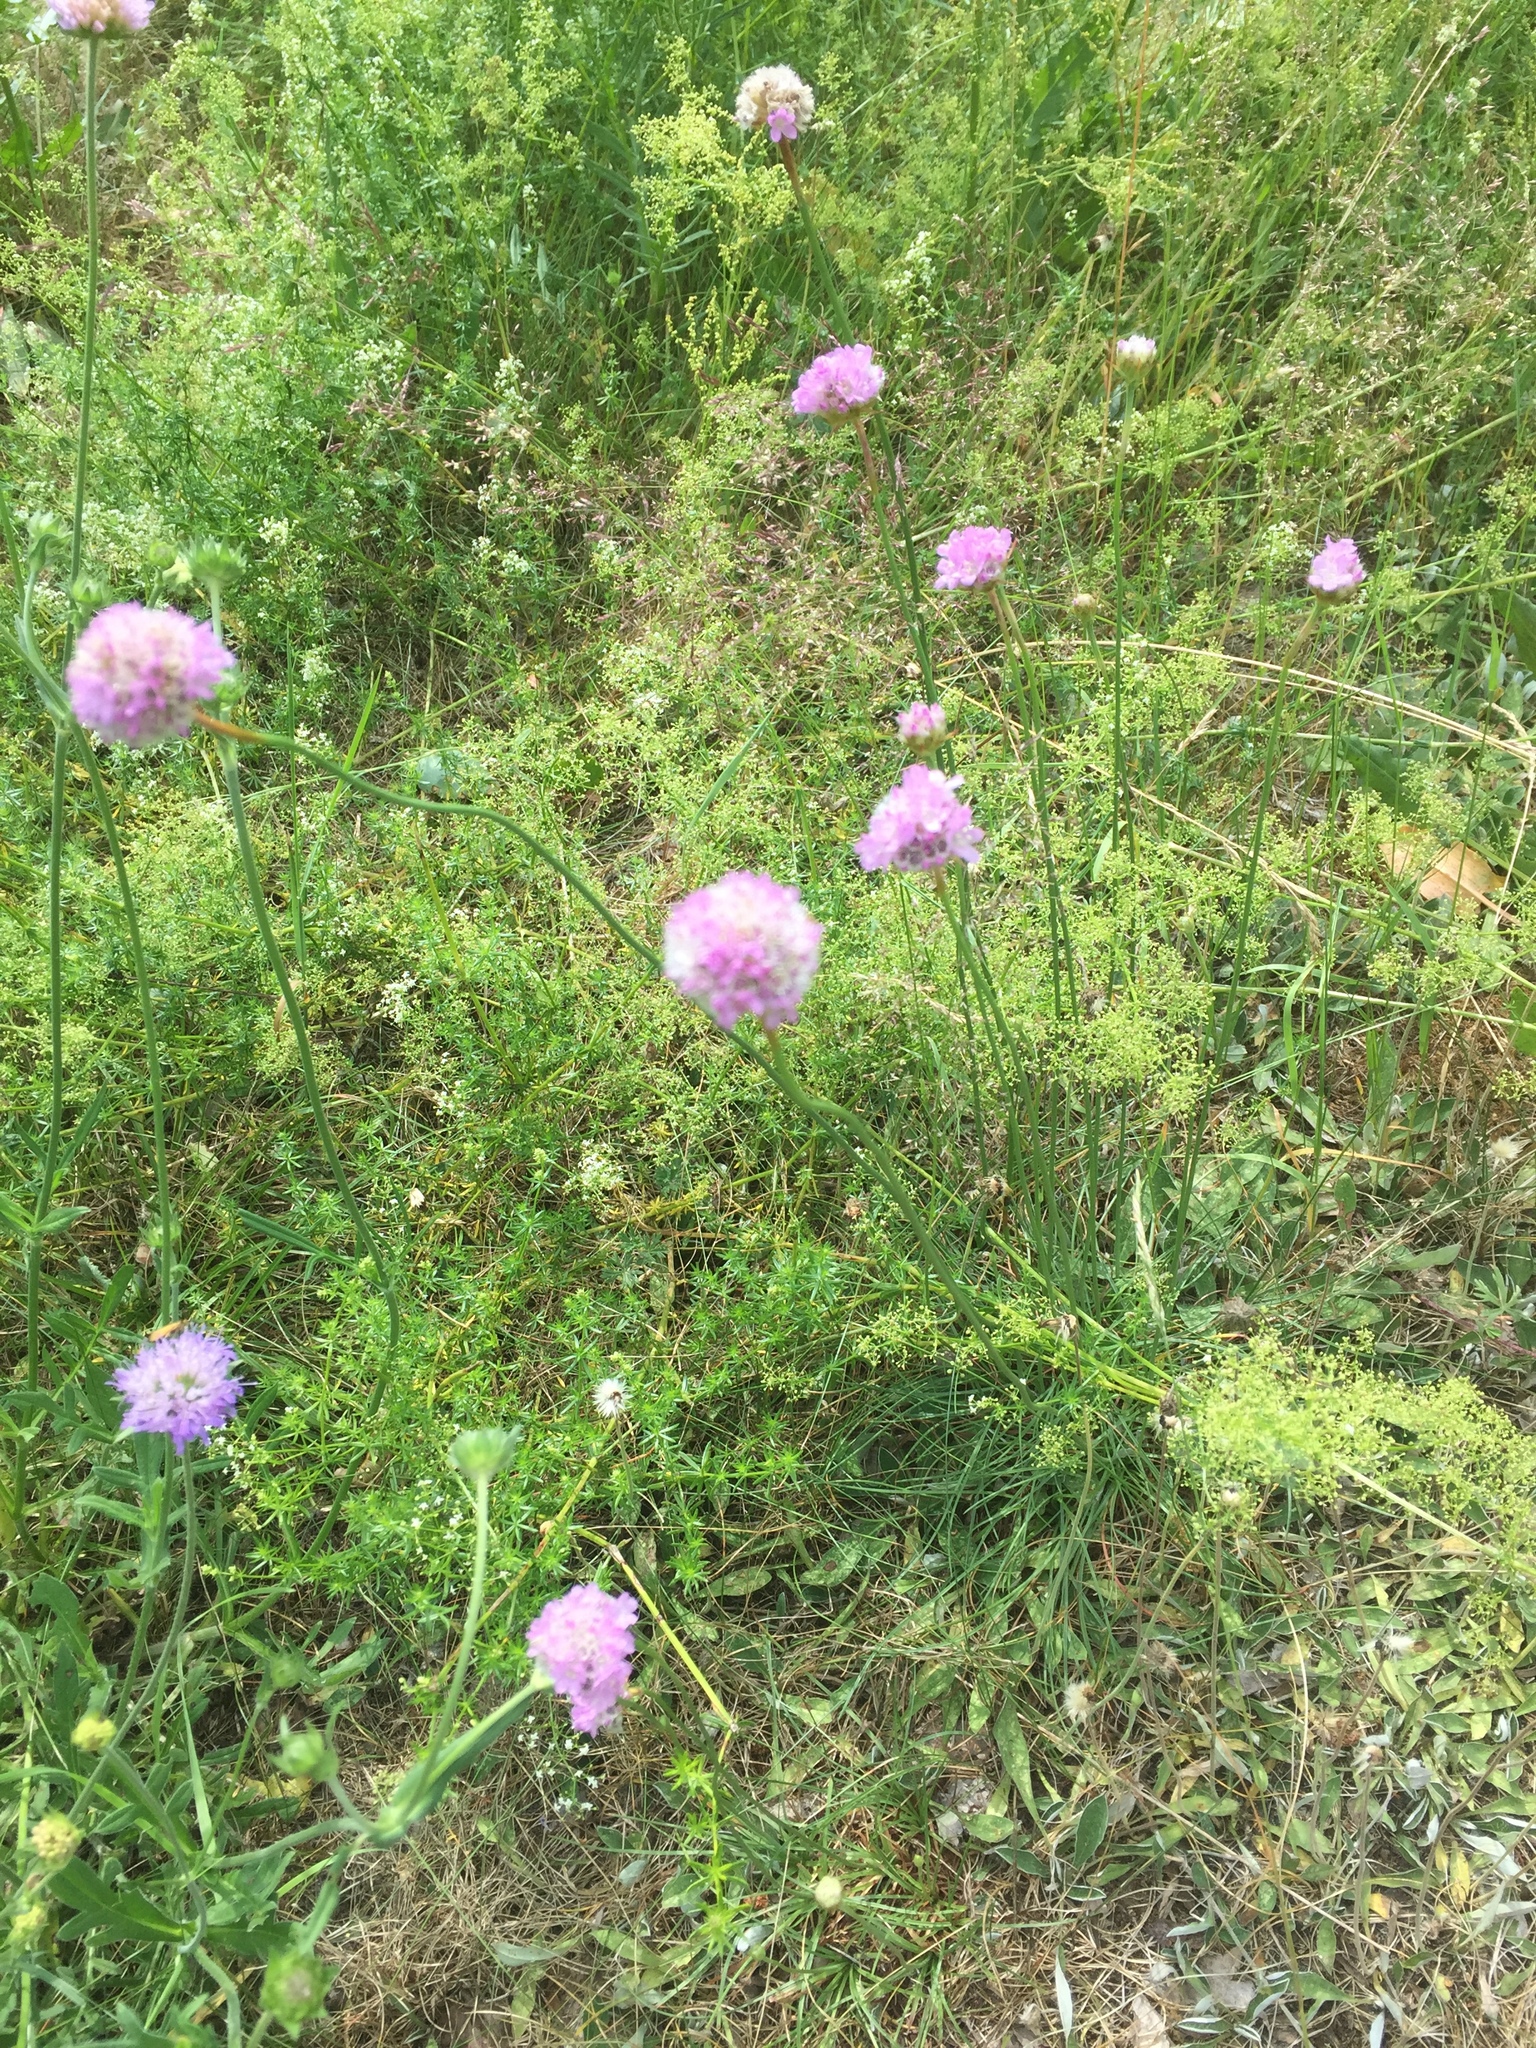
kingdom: Plantae
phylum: Tracheophyta
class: Magnoliopsida
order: Caryophyllales
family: Plumbaginaceae
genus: Armeria
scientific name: Armeria maritima
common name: Thrift
